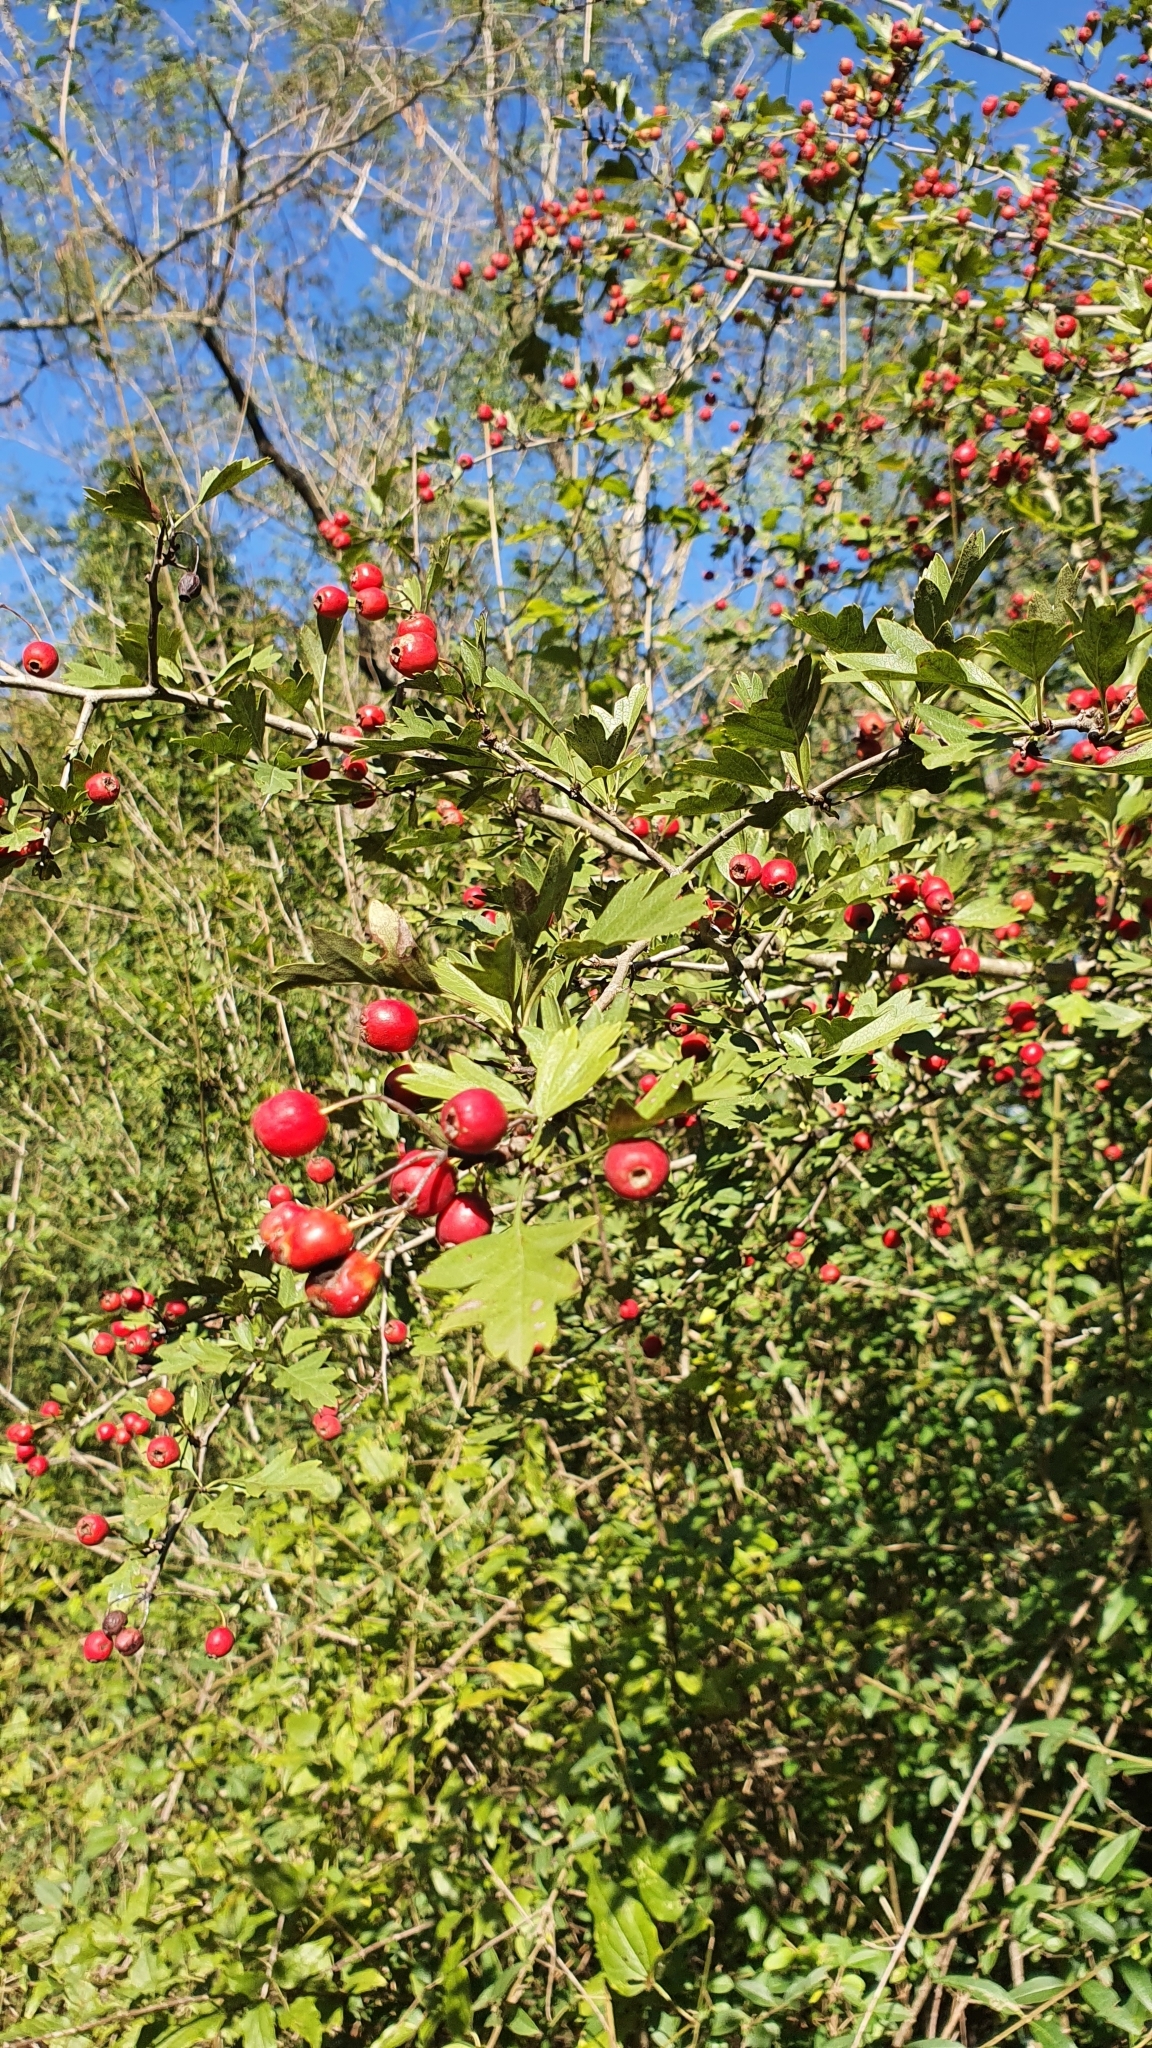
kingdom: Plantae
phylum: Tracheophyta
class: Magnoliopsida
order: Rosales
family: Rosaceae
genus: Crataegus
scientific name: Crataegus monogyna
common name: Hawthorn
